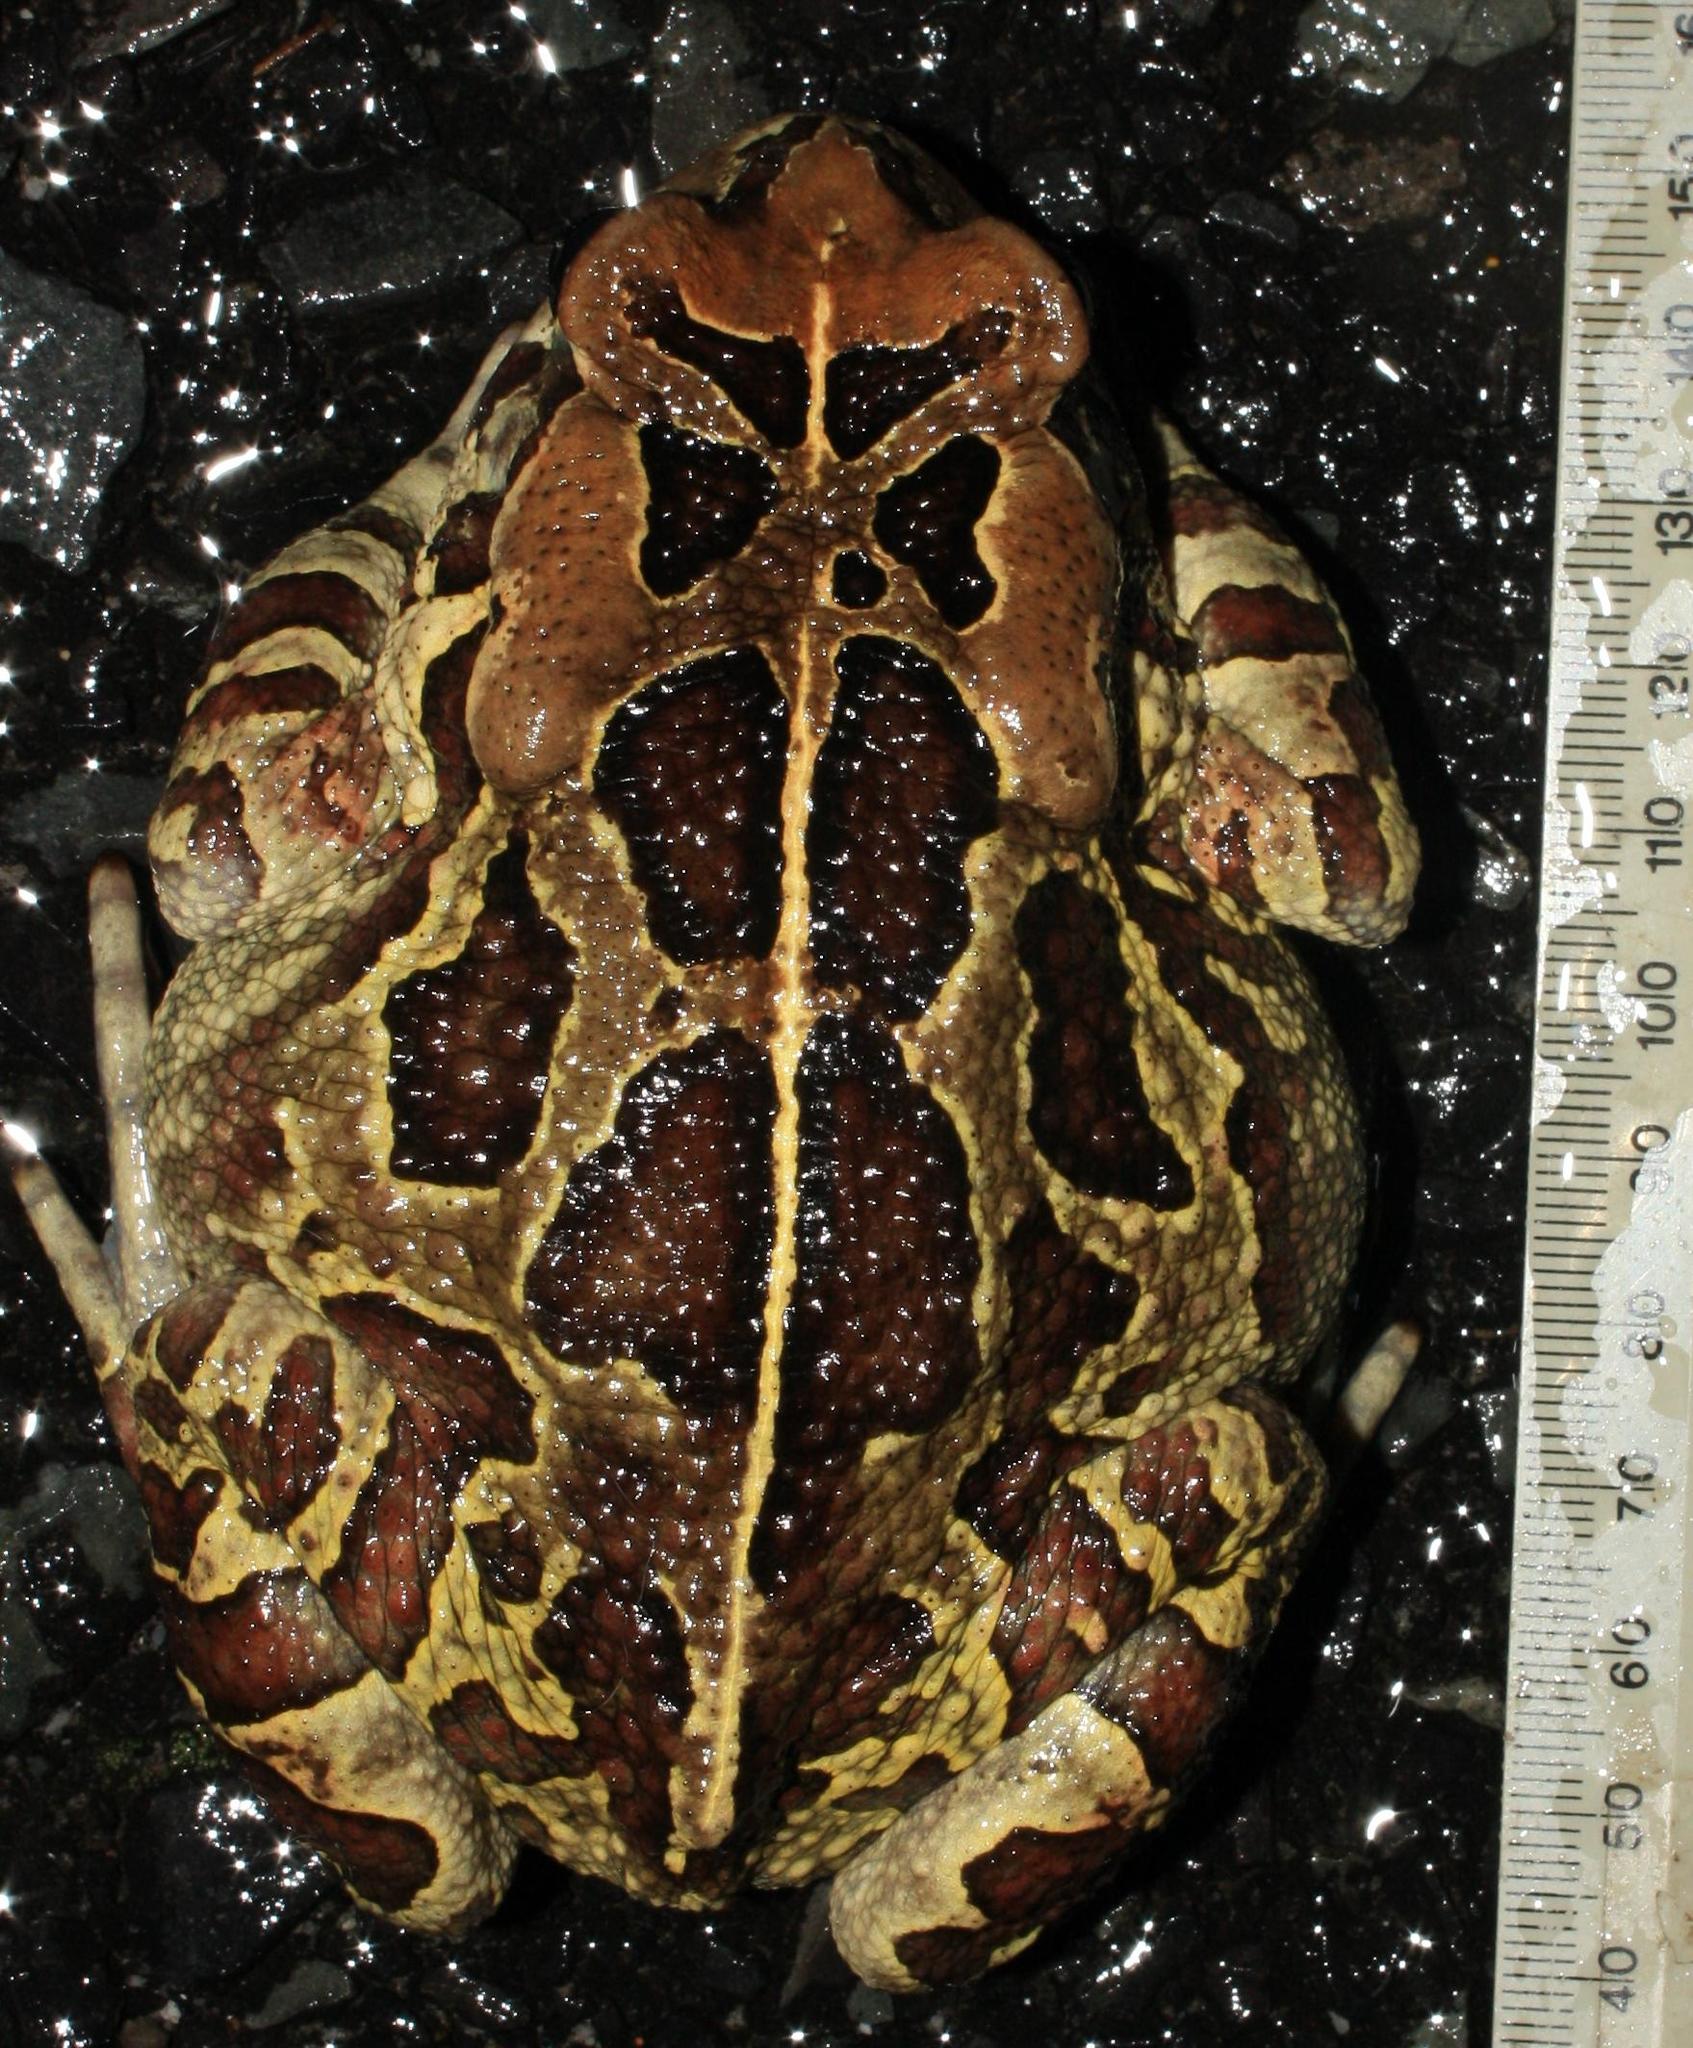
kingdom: Animalia
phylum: Chordata
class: Amphibia
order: Anura
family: Bufonidae
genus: Sclerophrys
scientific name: Sclerophrys pantherina
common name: Panther toad
